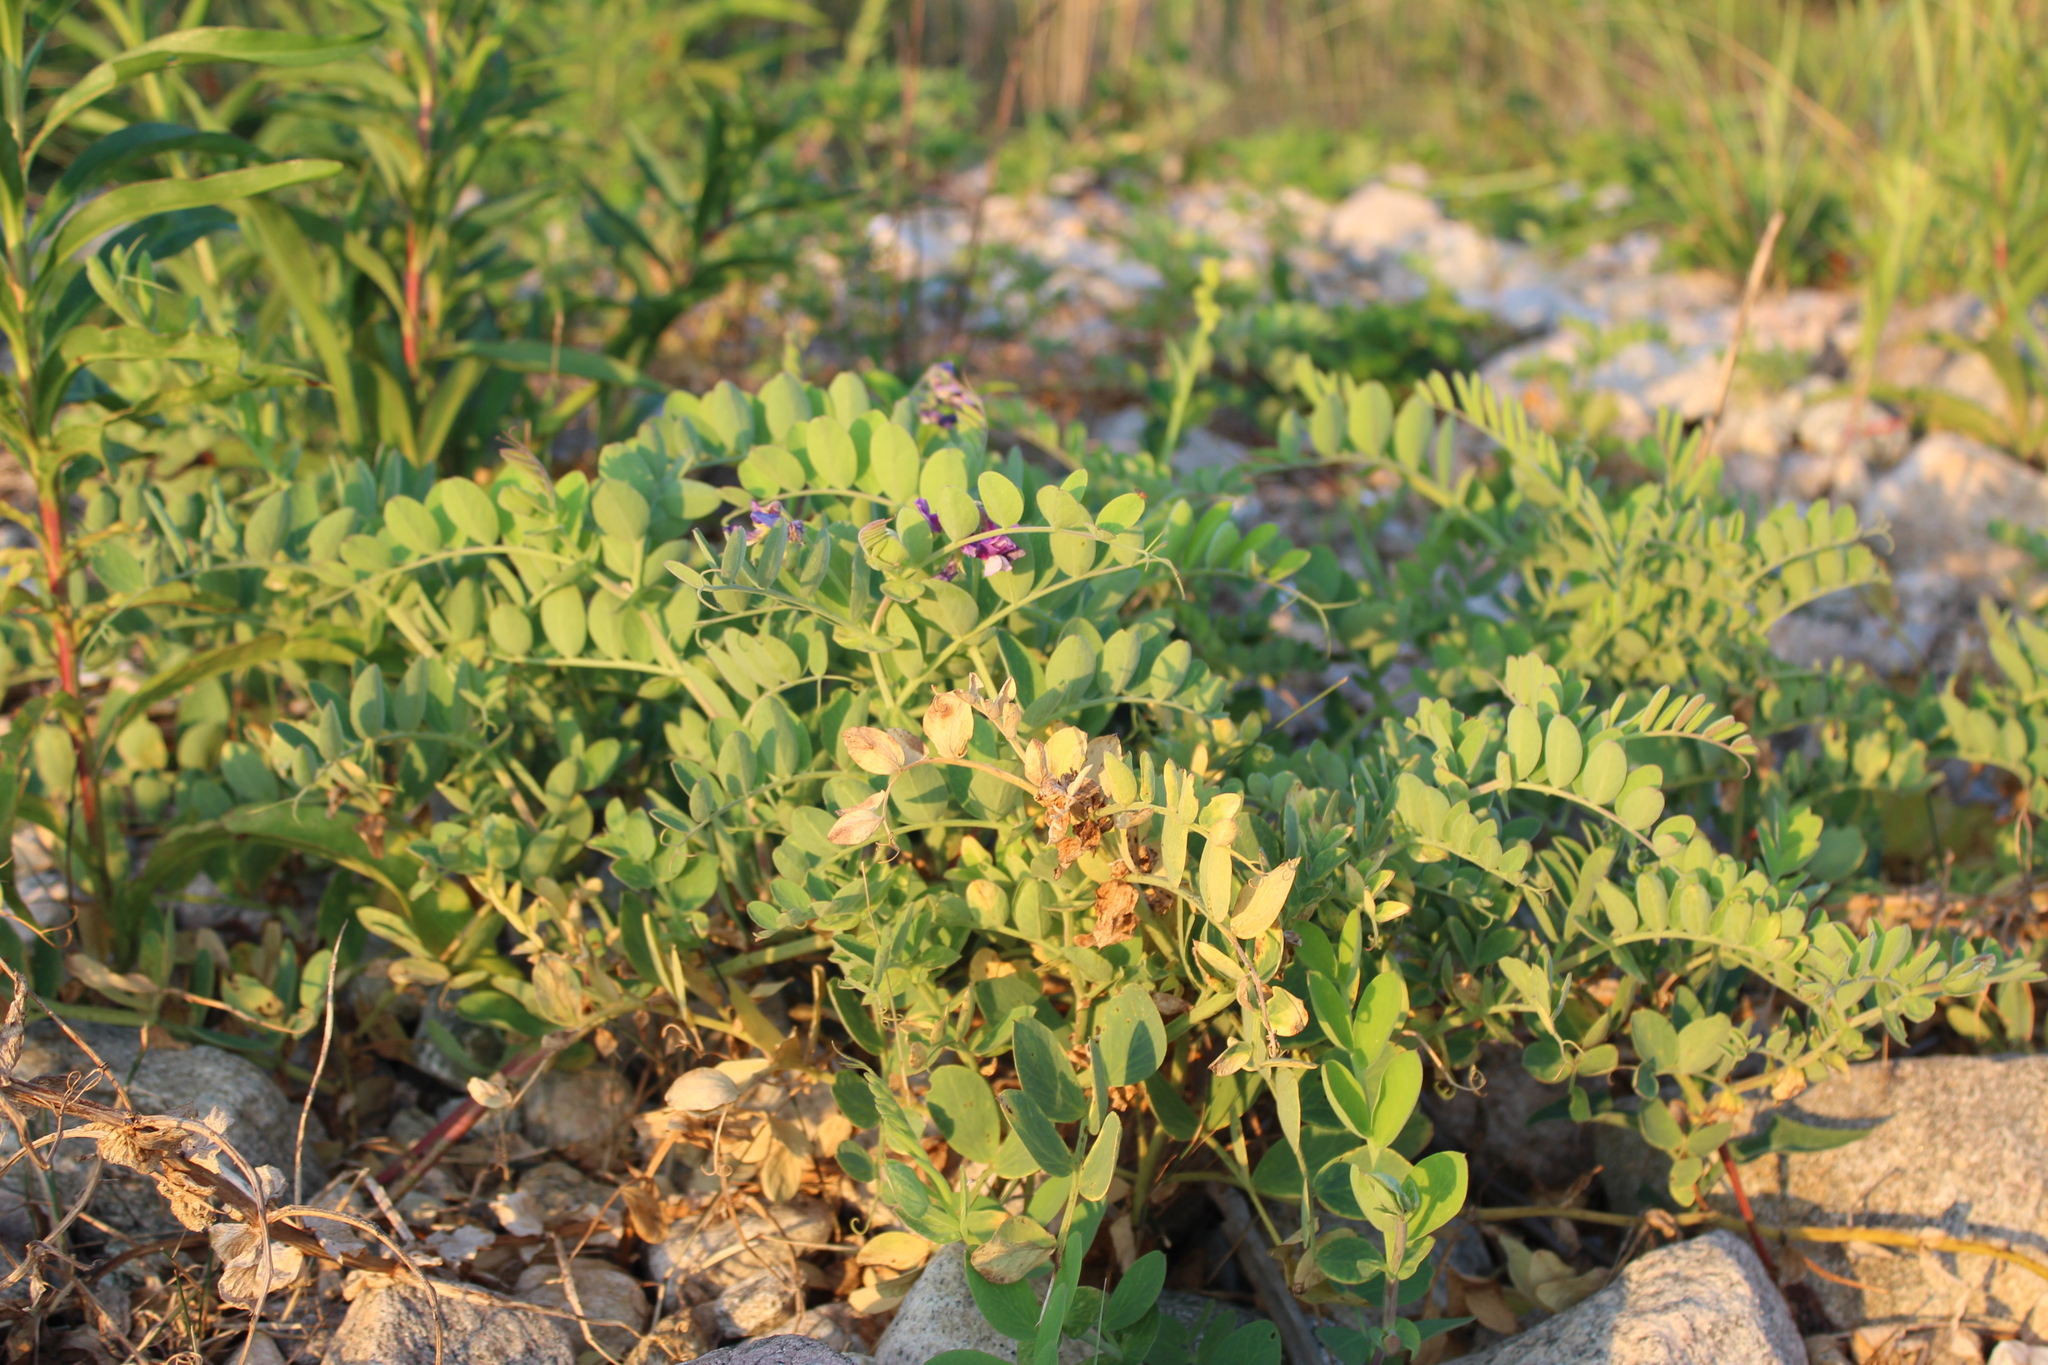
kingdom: Plantae
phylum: Tracheophyta
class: Magnoliopsida
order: Fabales
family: Fabaceae
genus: Lathyrus
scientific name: Lathyrus japonicus
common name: Sea pea
